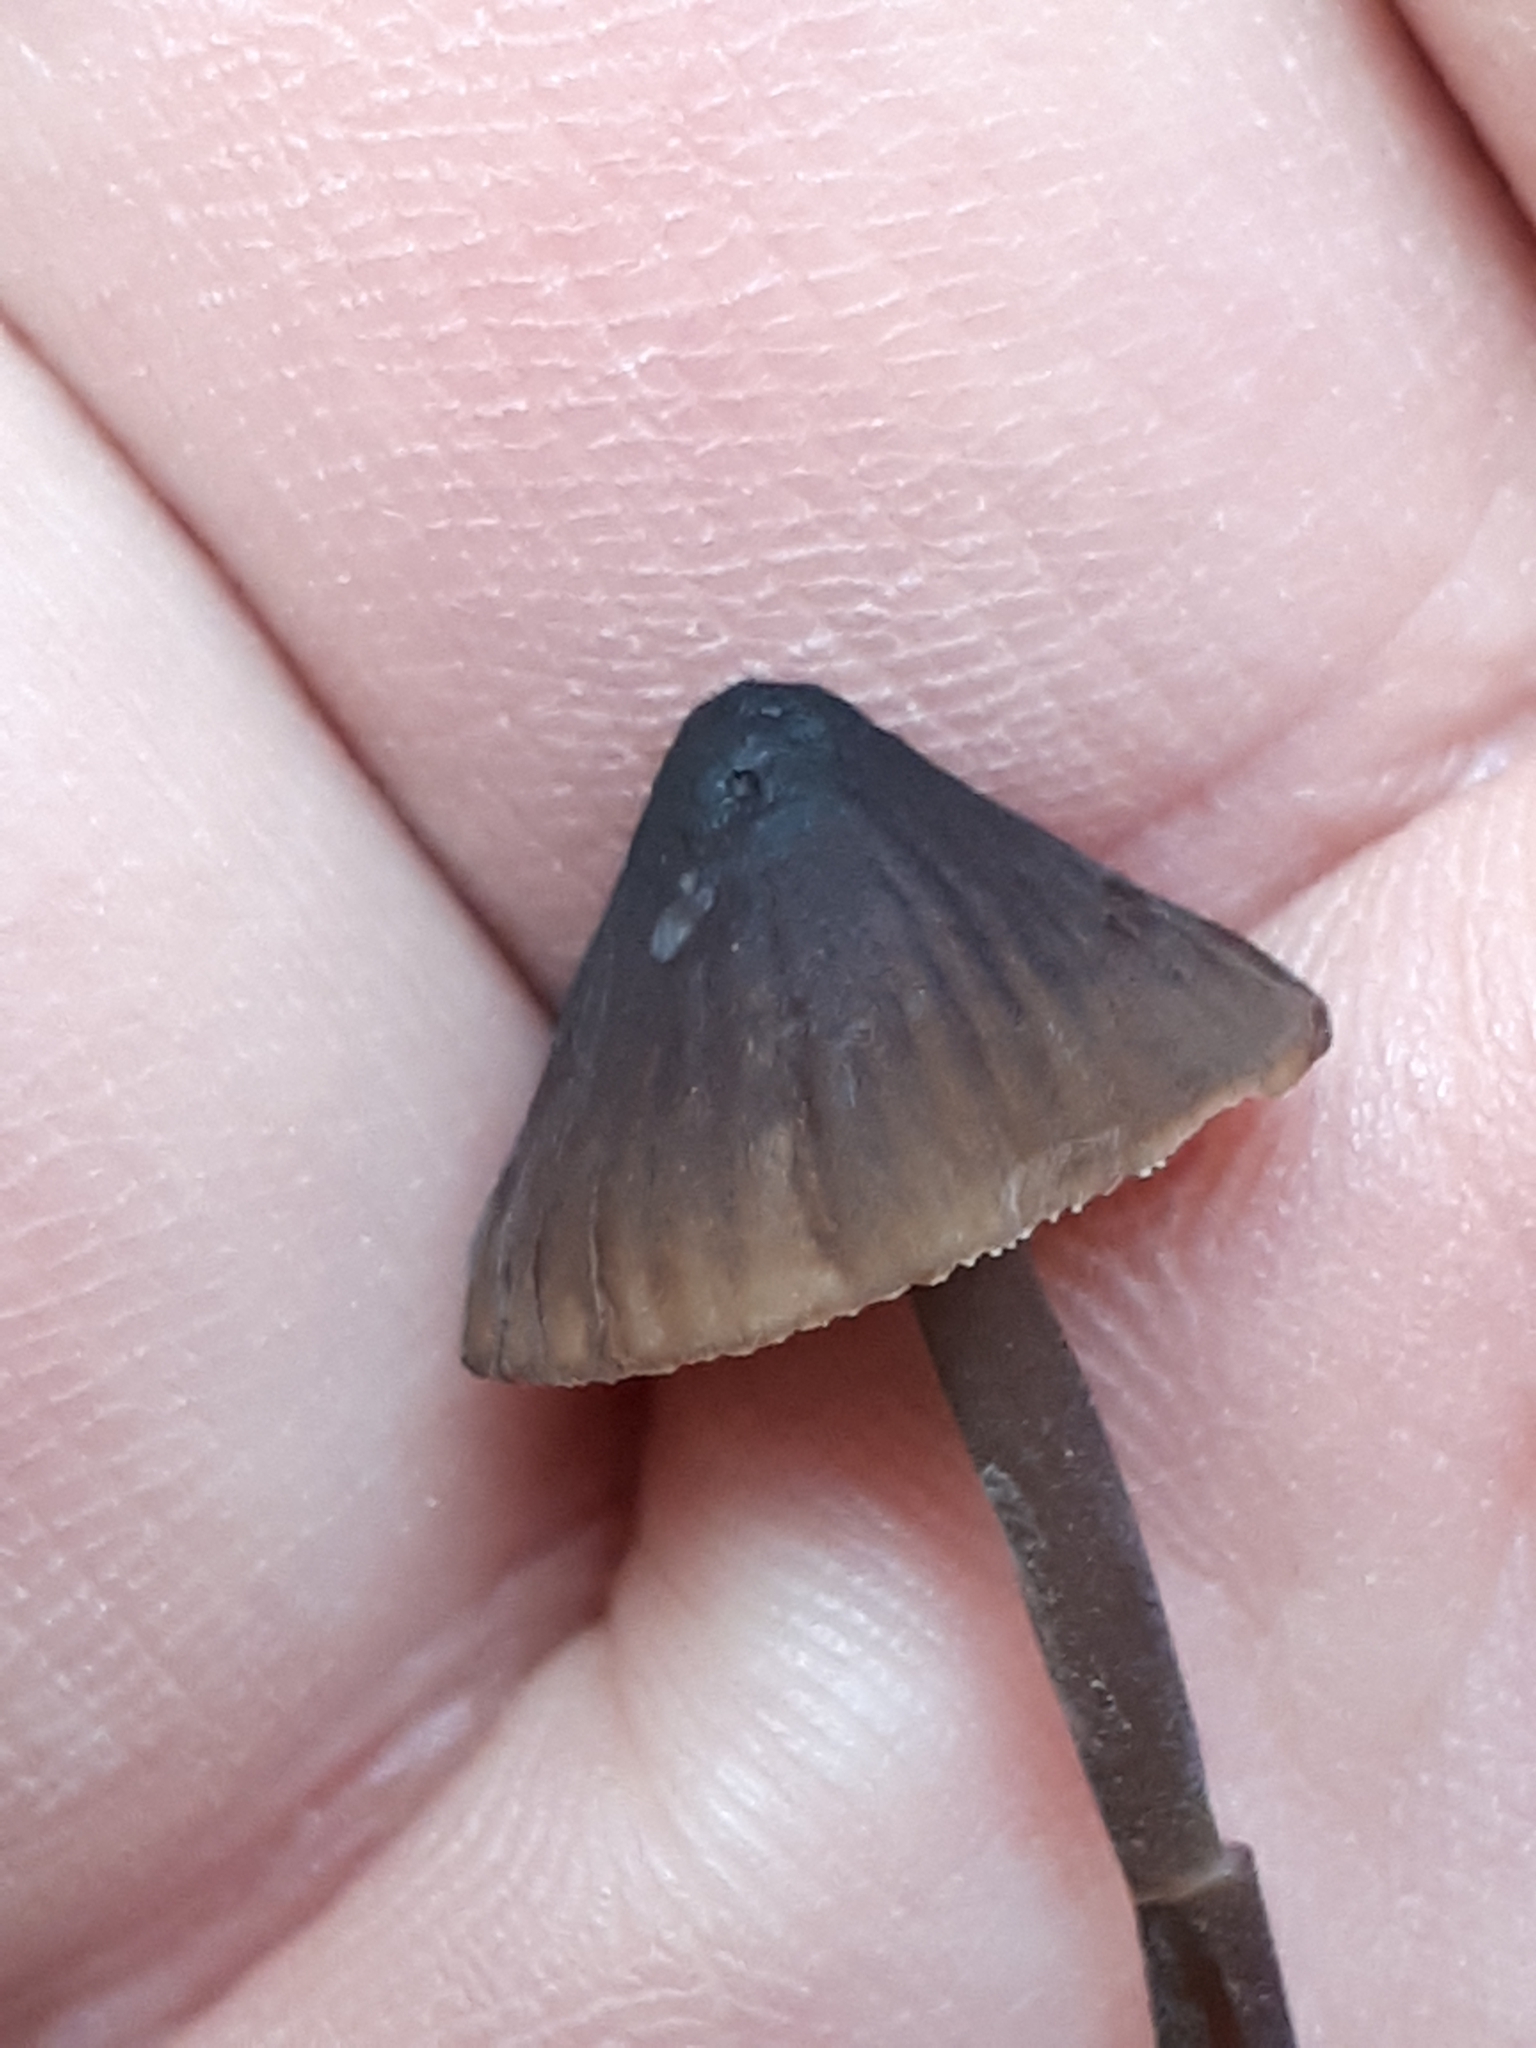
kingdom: Fungi
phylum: Basidiomycota
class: Agaricomycetes
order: Agaricales
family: Mycenaceae
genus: Mycena
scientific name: Mycena galopus
